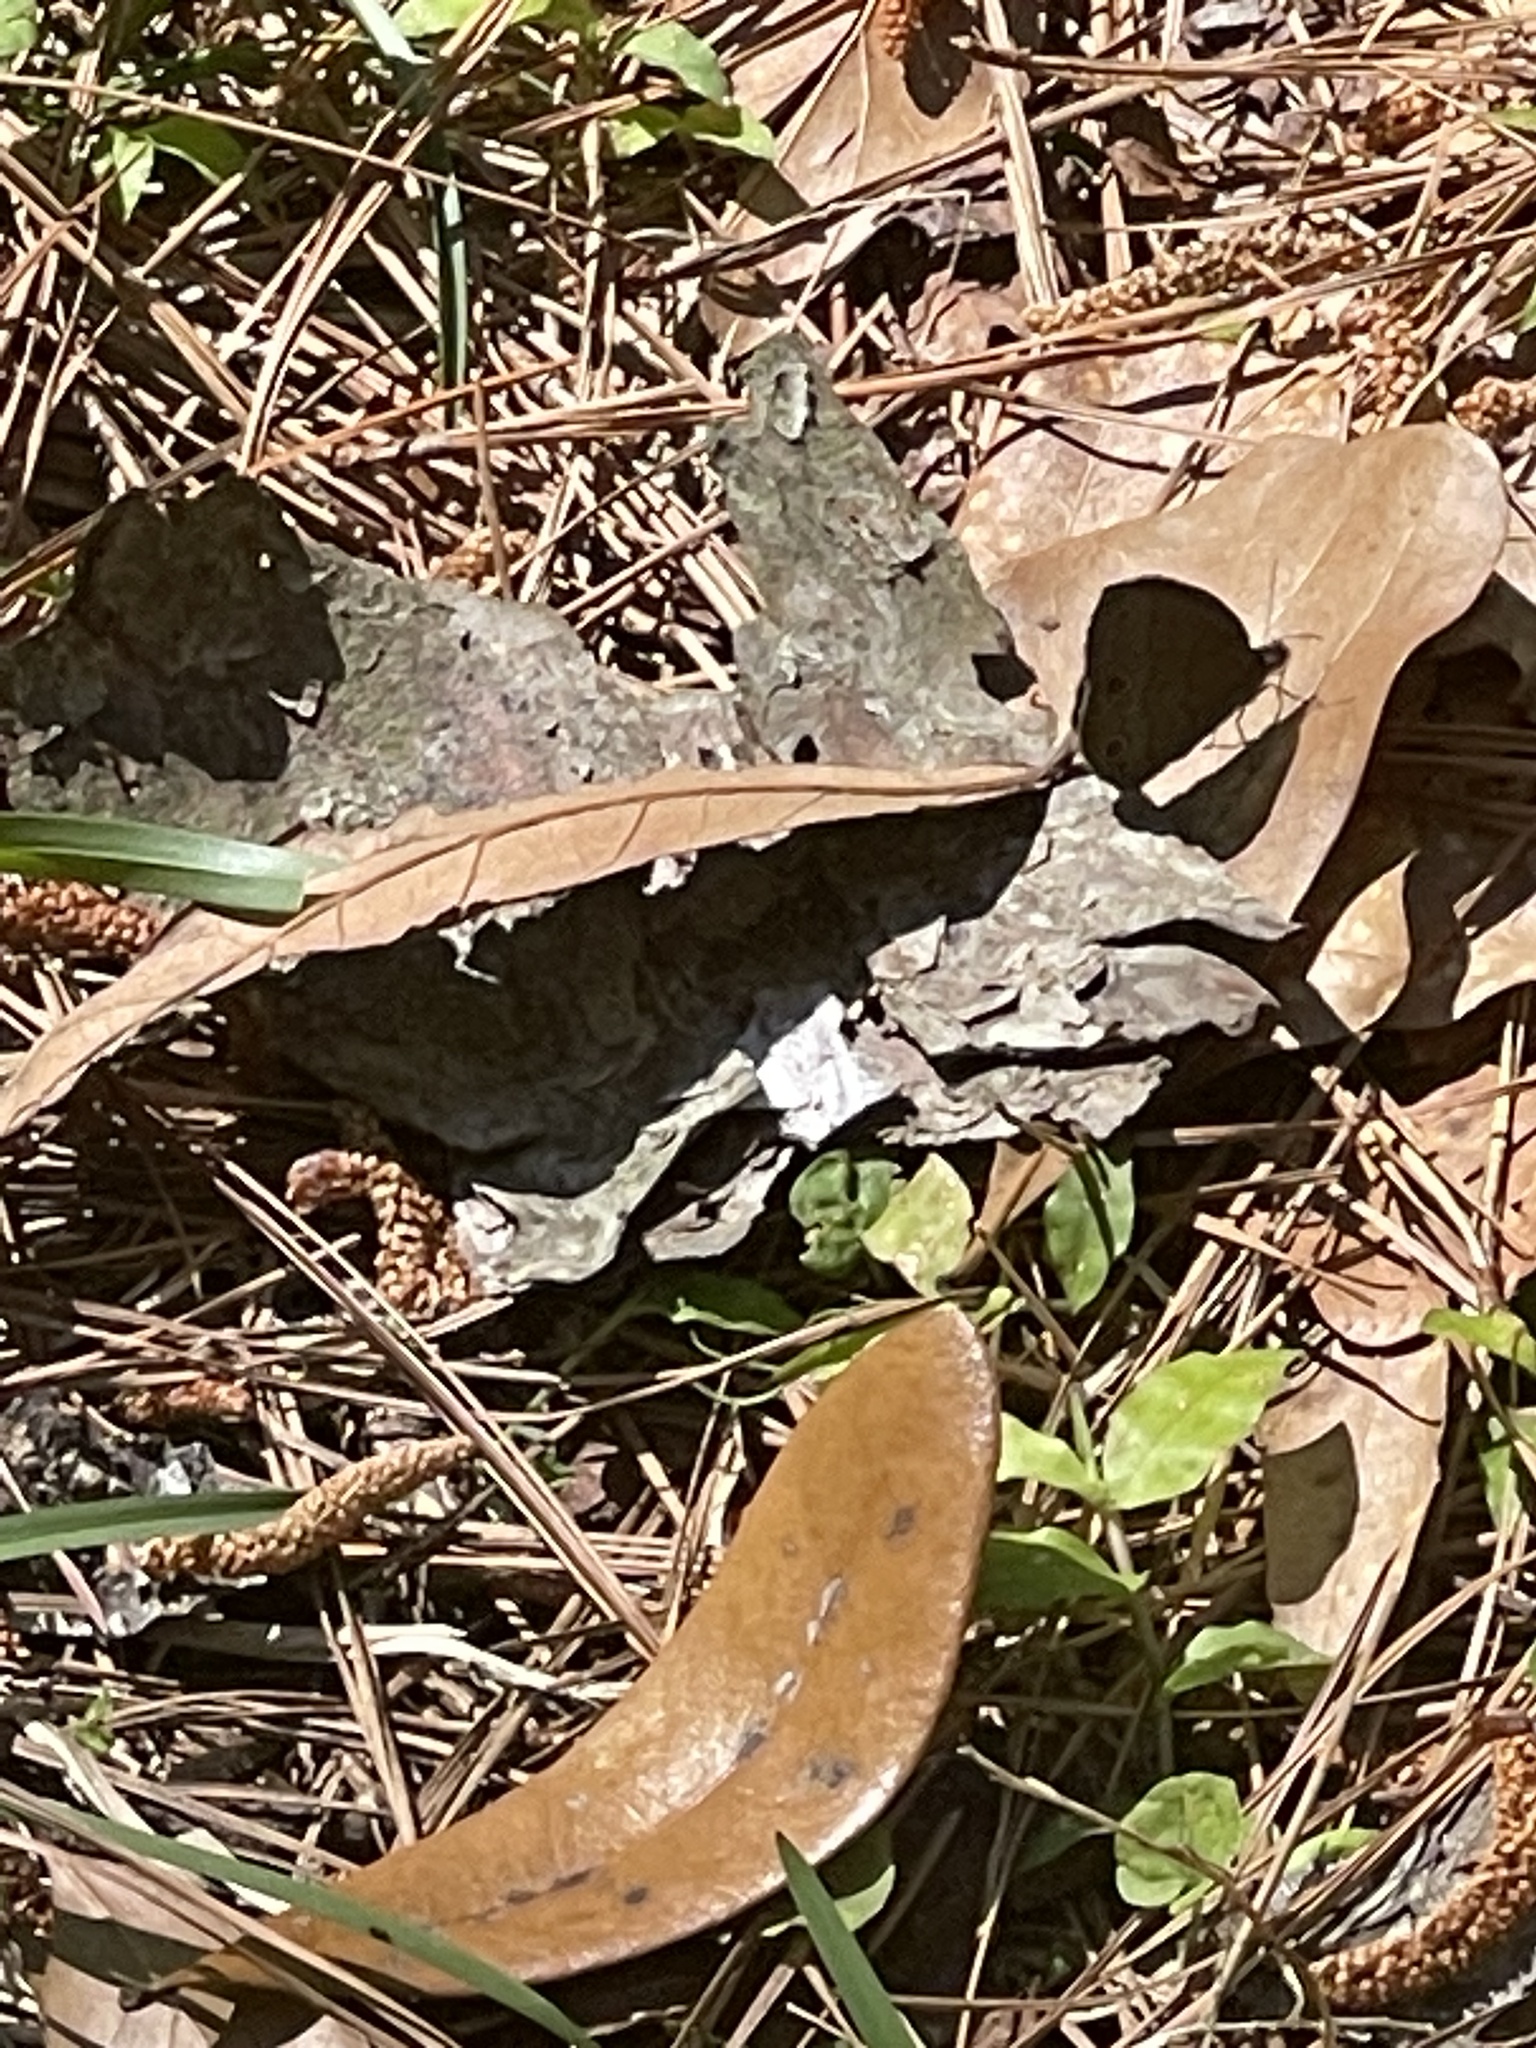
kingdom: Animalia
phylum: Arthropoda
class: Insecta
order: Lepidoptera
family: Nymphalidae
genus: Hermeuptychia
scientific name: Hermeuptychia hermes
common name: Hermes satyr
